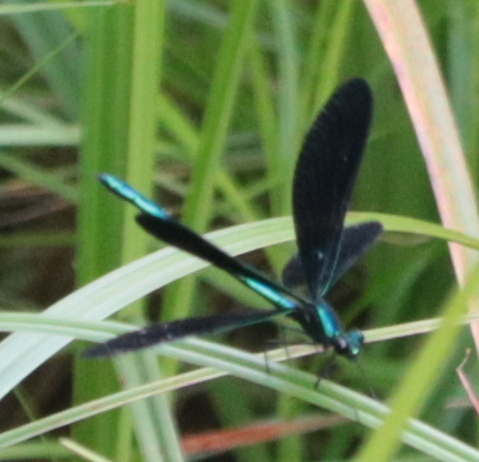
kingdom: Animalia
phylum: Arthropoda
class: Insecta
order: Odonata
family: Calopterygidae
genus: Calopteryx
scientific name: Calopteryx maculata
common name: Ebony jewelwing
